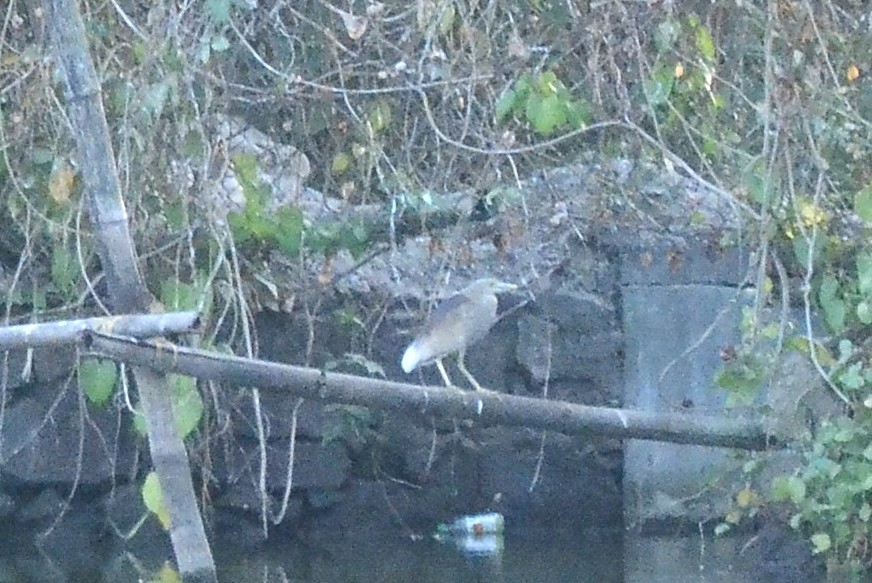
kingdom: Animalia
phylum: Chordata
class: Aves
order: Pelecaniformes
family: Ardeidae
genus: Ardeola
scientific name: Ardeola grayii
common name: Indian pond heron
